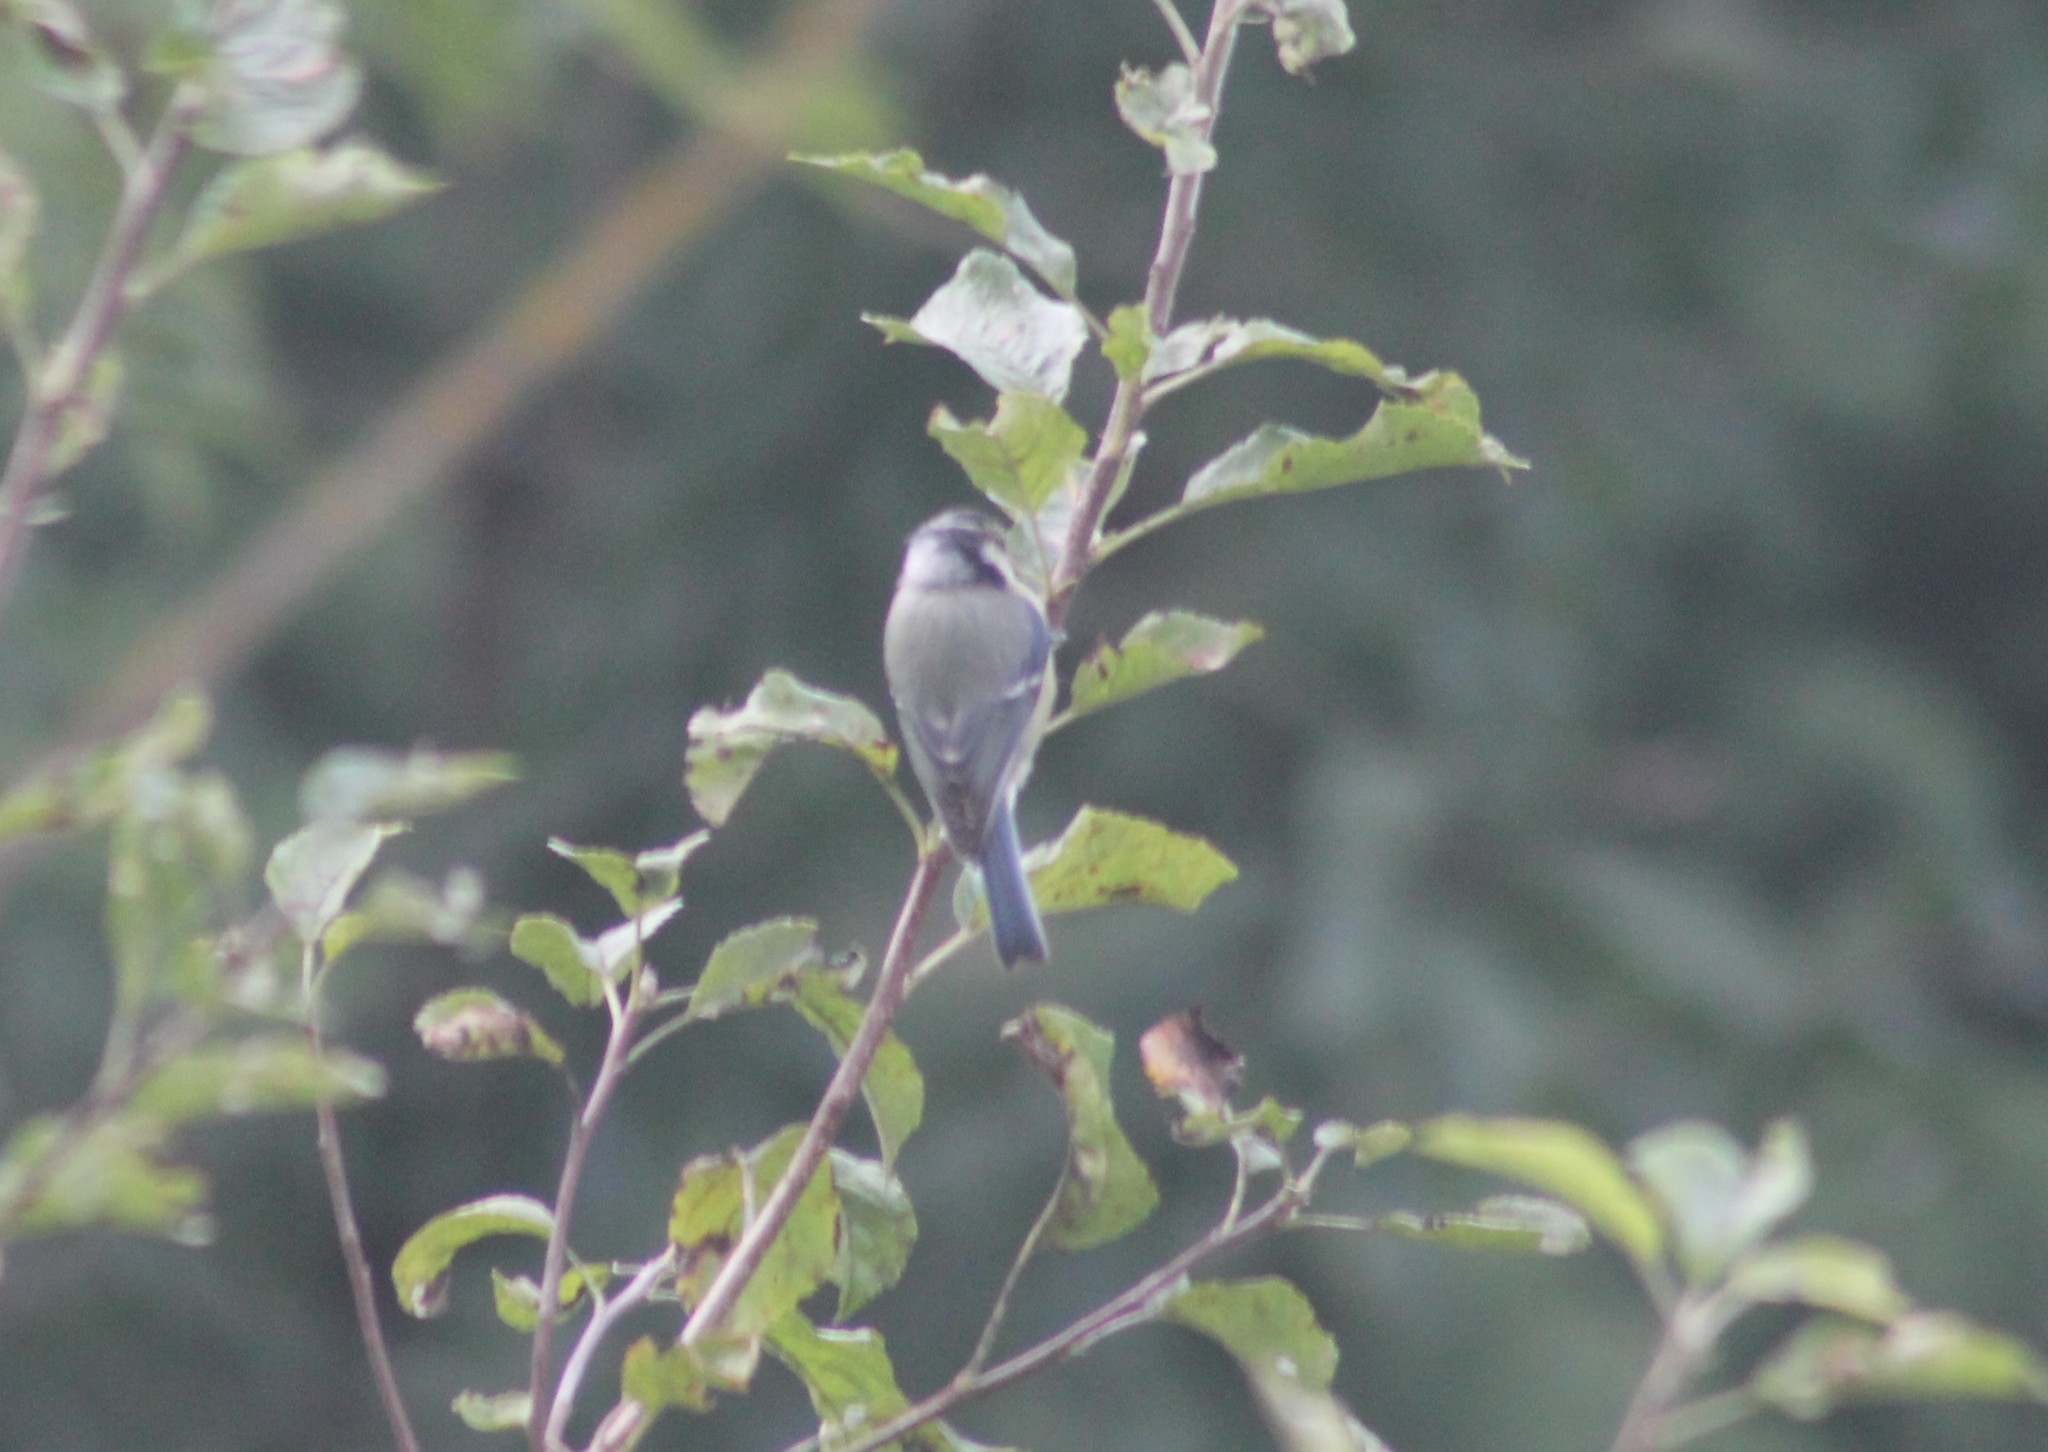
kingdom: Animalia
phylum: Chordata
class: Aves
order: Passeriformes
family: Paridae
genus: Cyanistes
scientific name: Cyanistes caeruleus
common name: Eurasian blue tit
